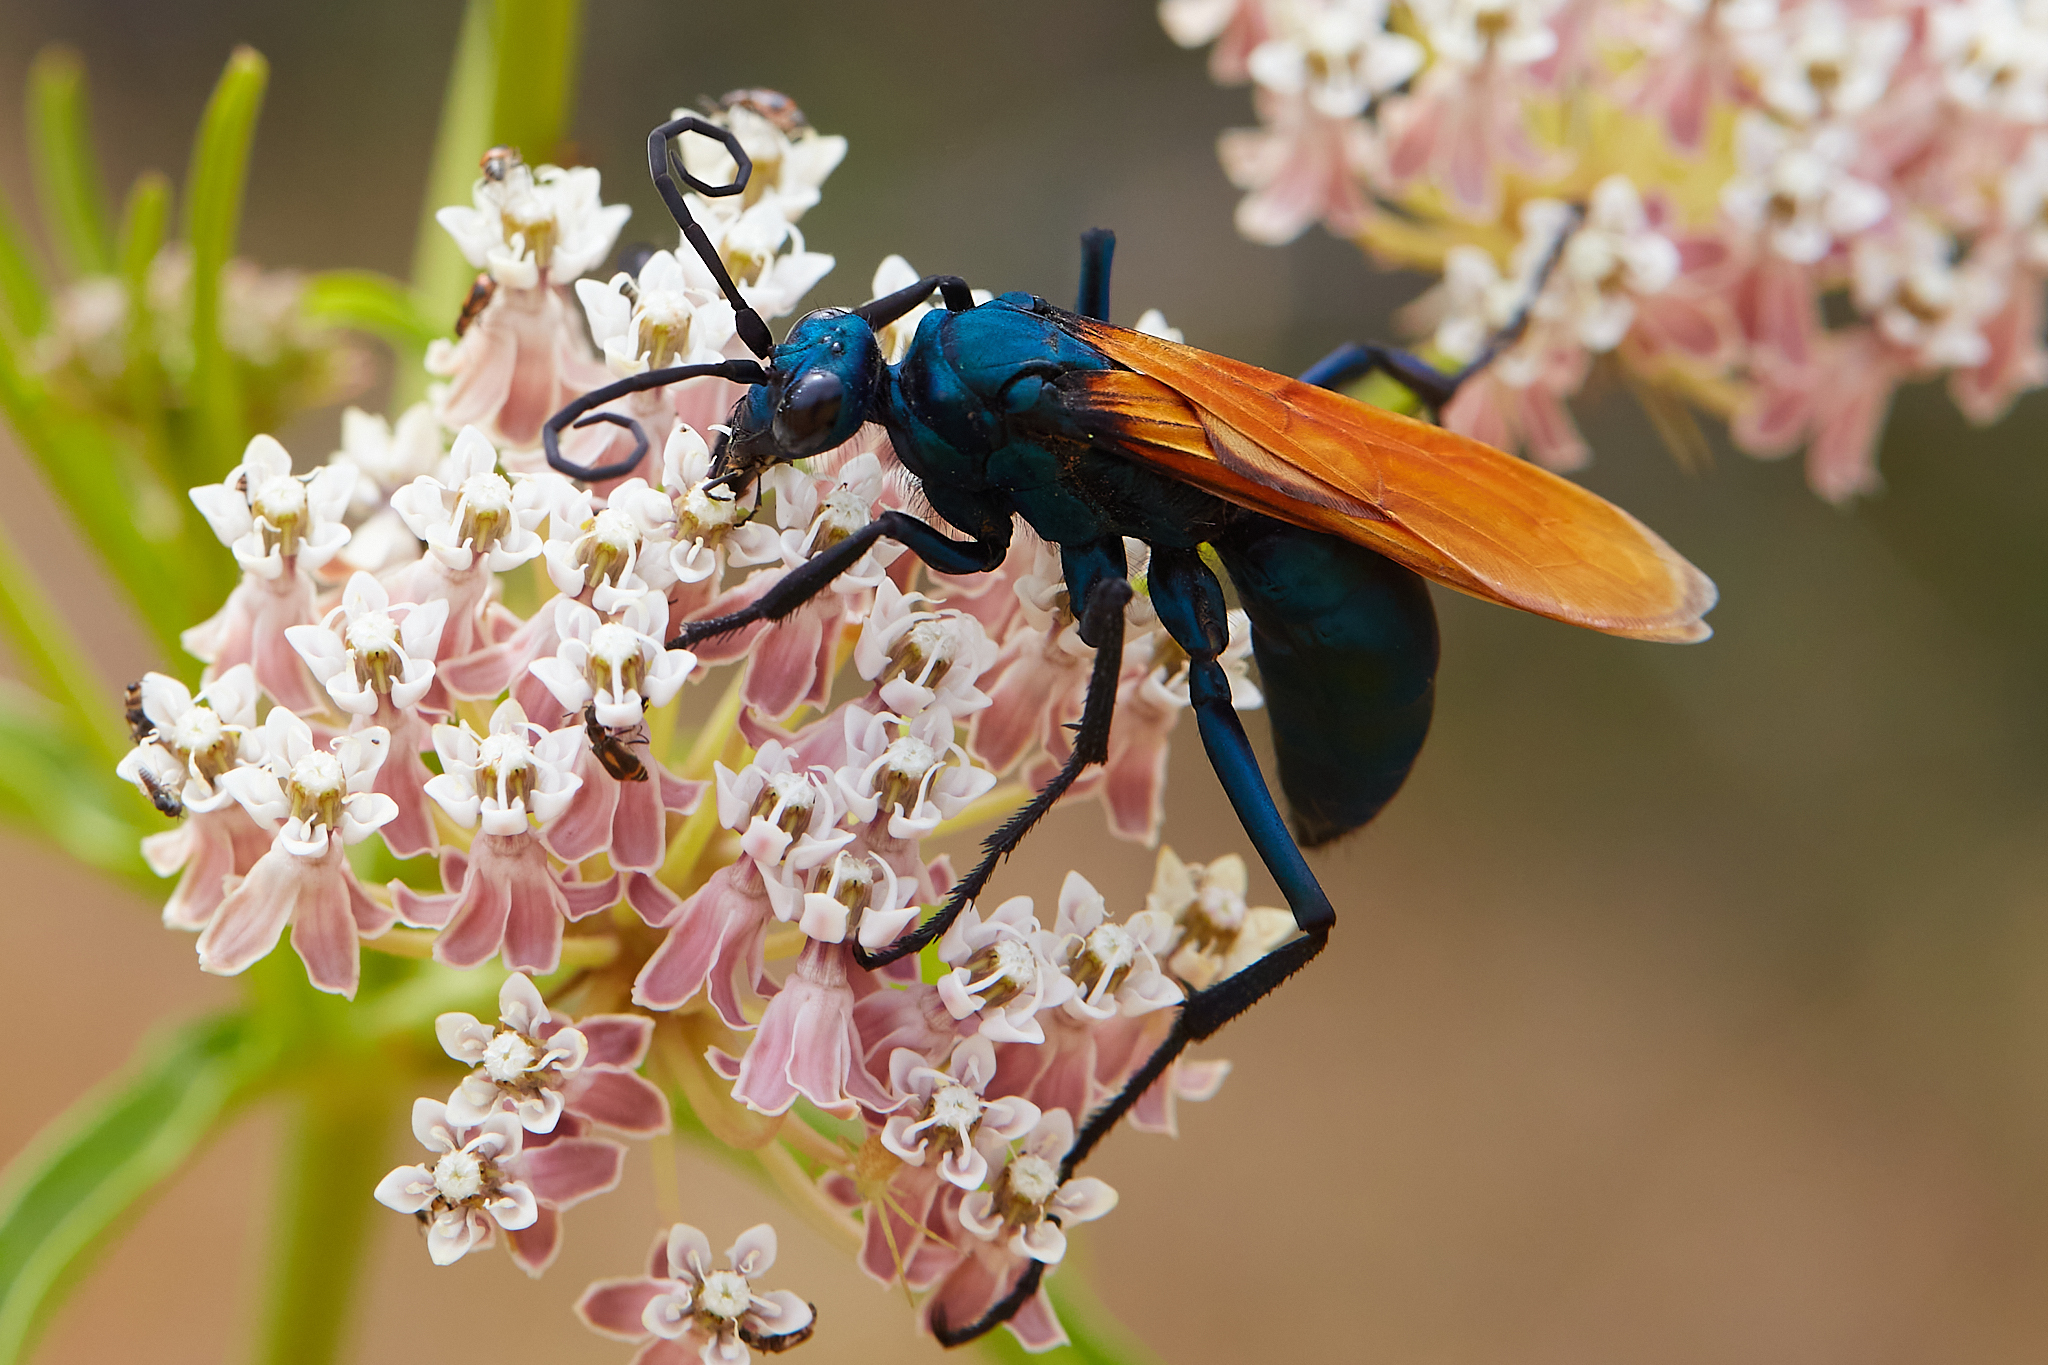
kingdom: Animalia
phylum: Arthropoda
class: Insecta
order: Hymenoptera
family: Pompilidae
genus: Pepsis
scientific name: Pepsis pallidolimbata
